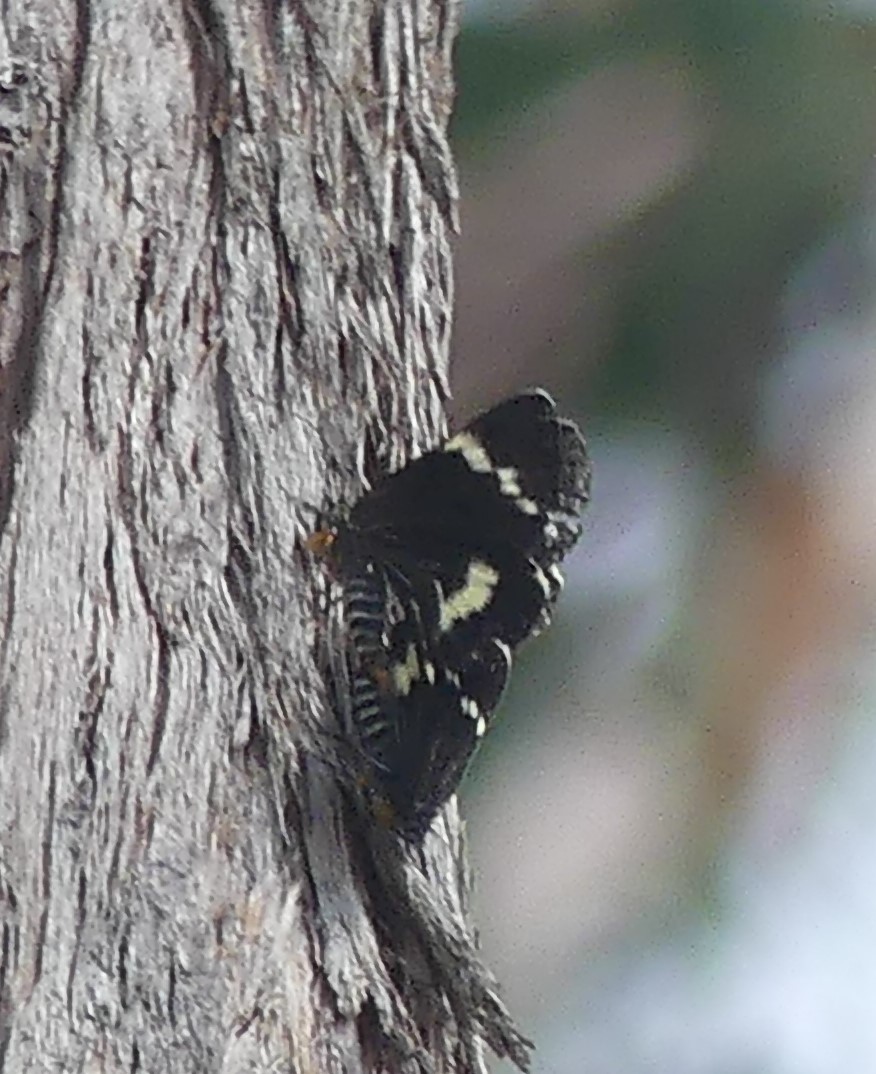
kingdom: Animalia
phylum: Arthropoda
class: Insecta
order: Lepidoptera
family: Noctuidae
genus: Platagarista
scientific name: Platagarista macleayi
